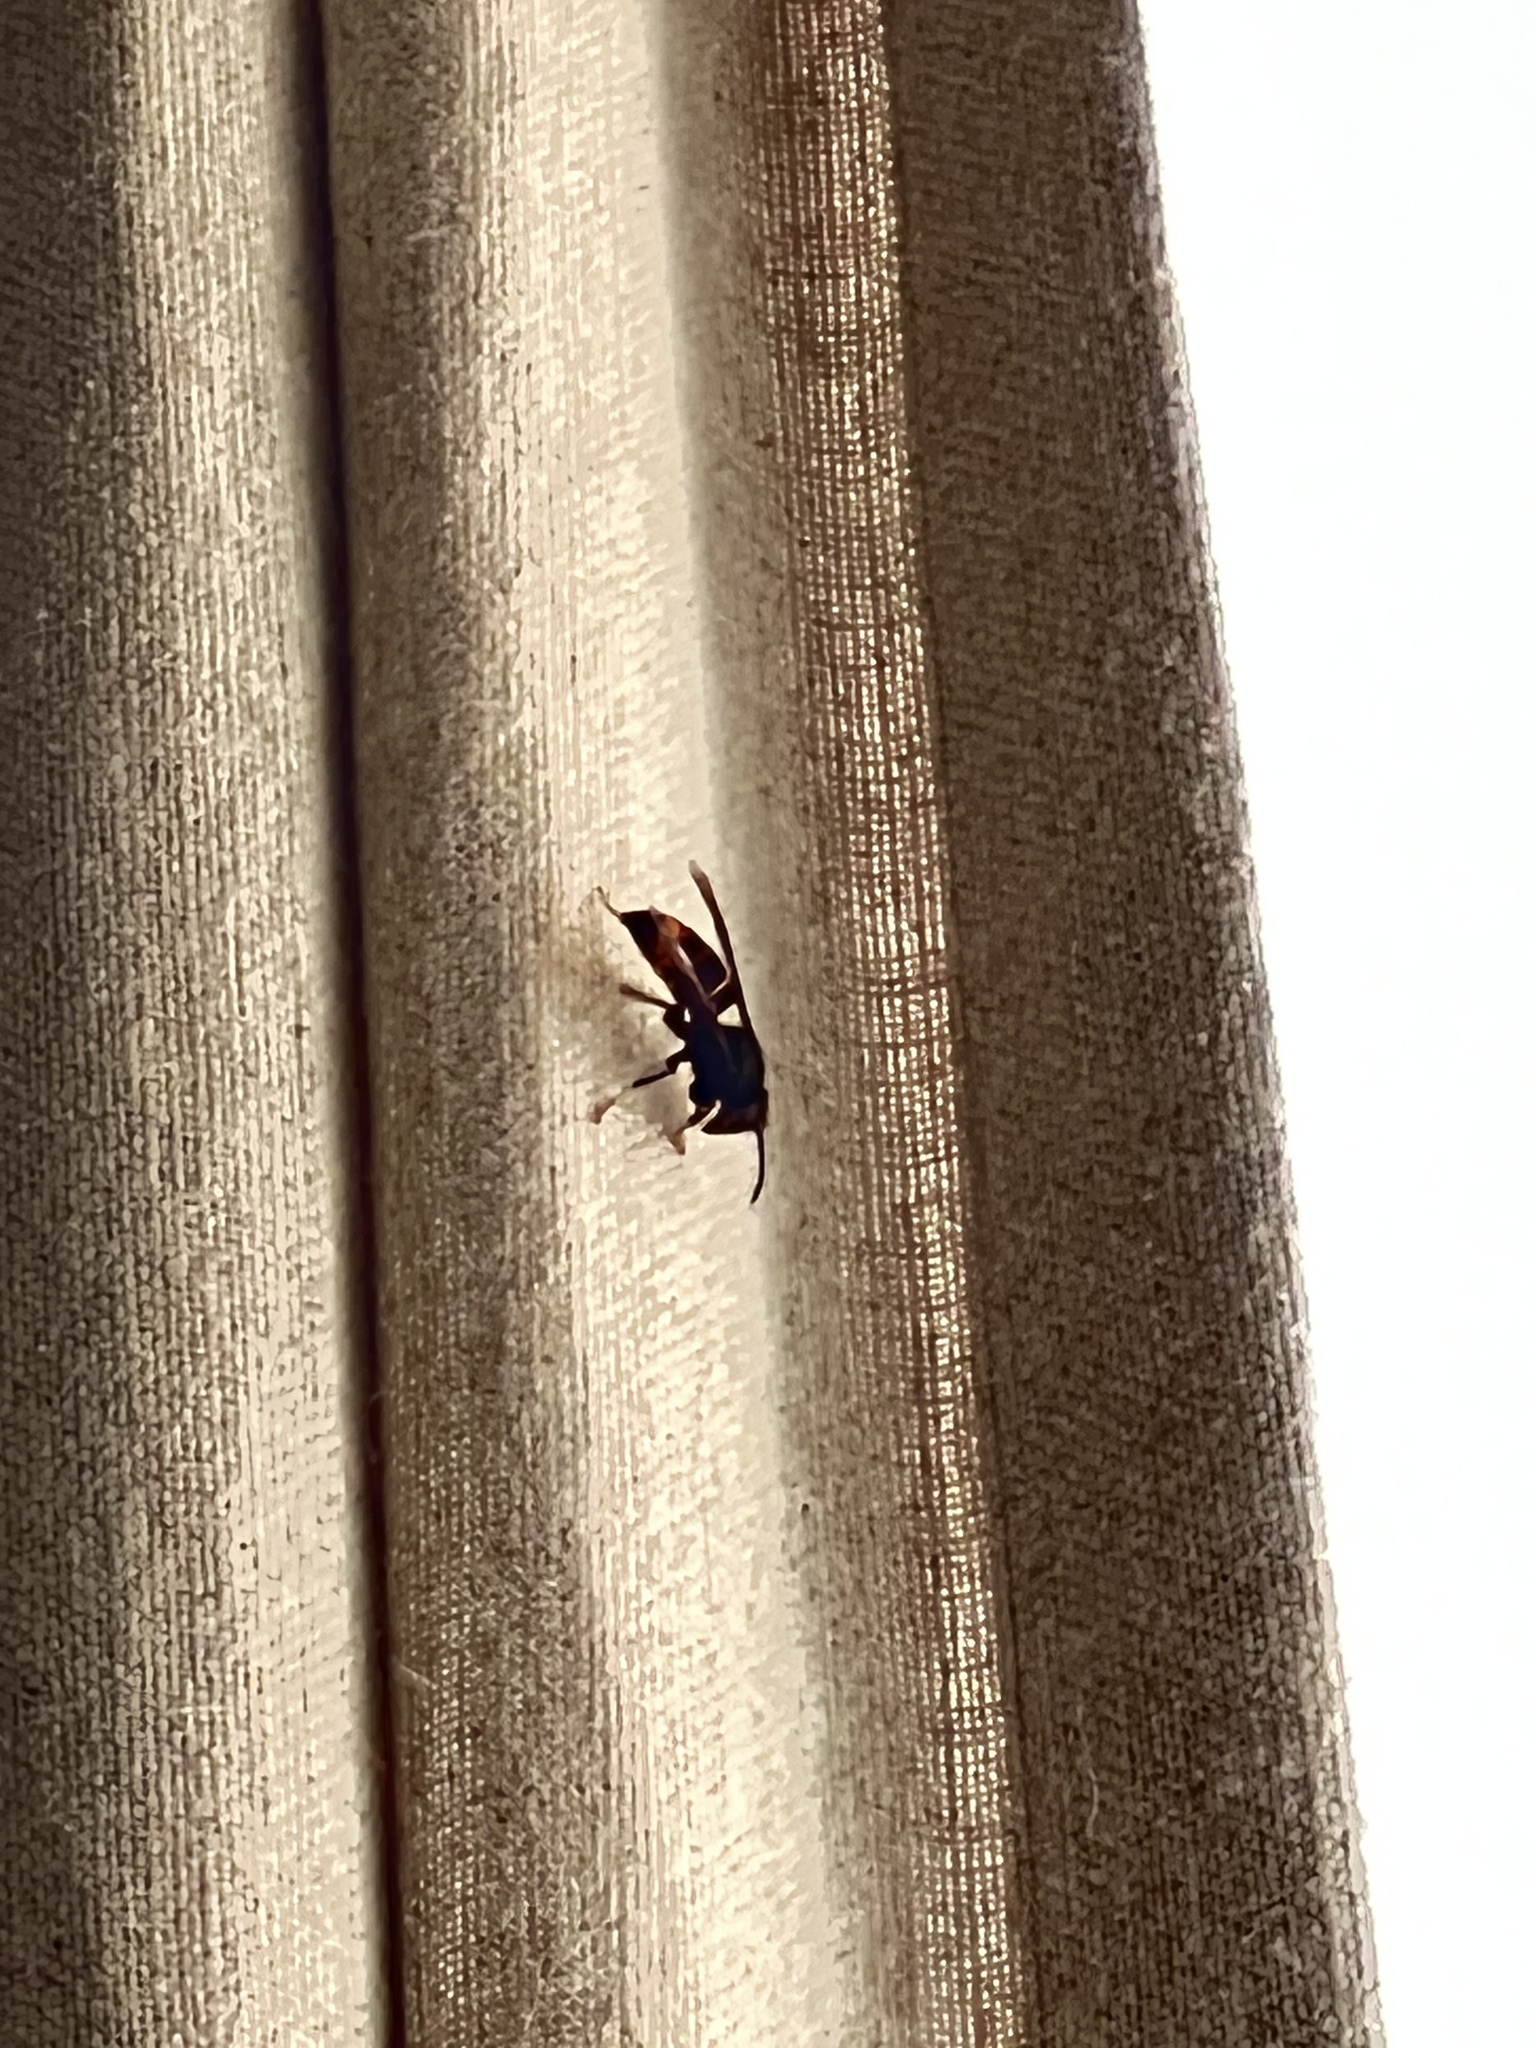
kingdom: Animalia
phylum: Arthropoda
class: Insecta
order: Hymenoptera
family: Vespidae
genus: Vespa
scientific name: Vespa velutina
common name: Asian hornet
